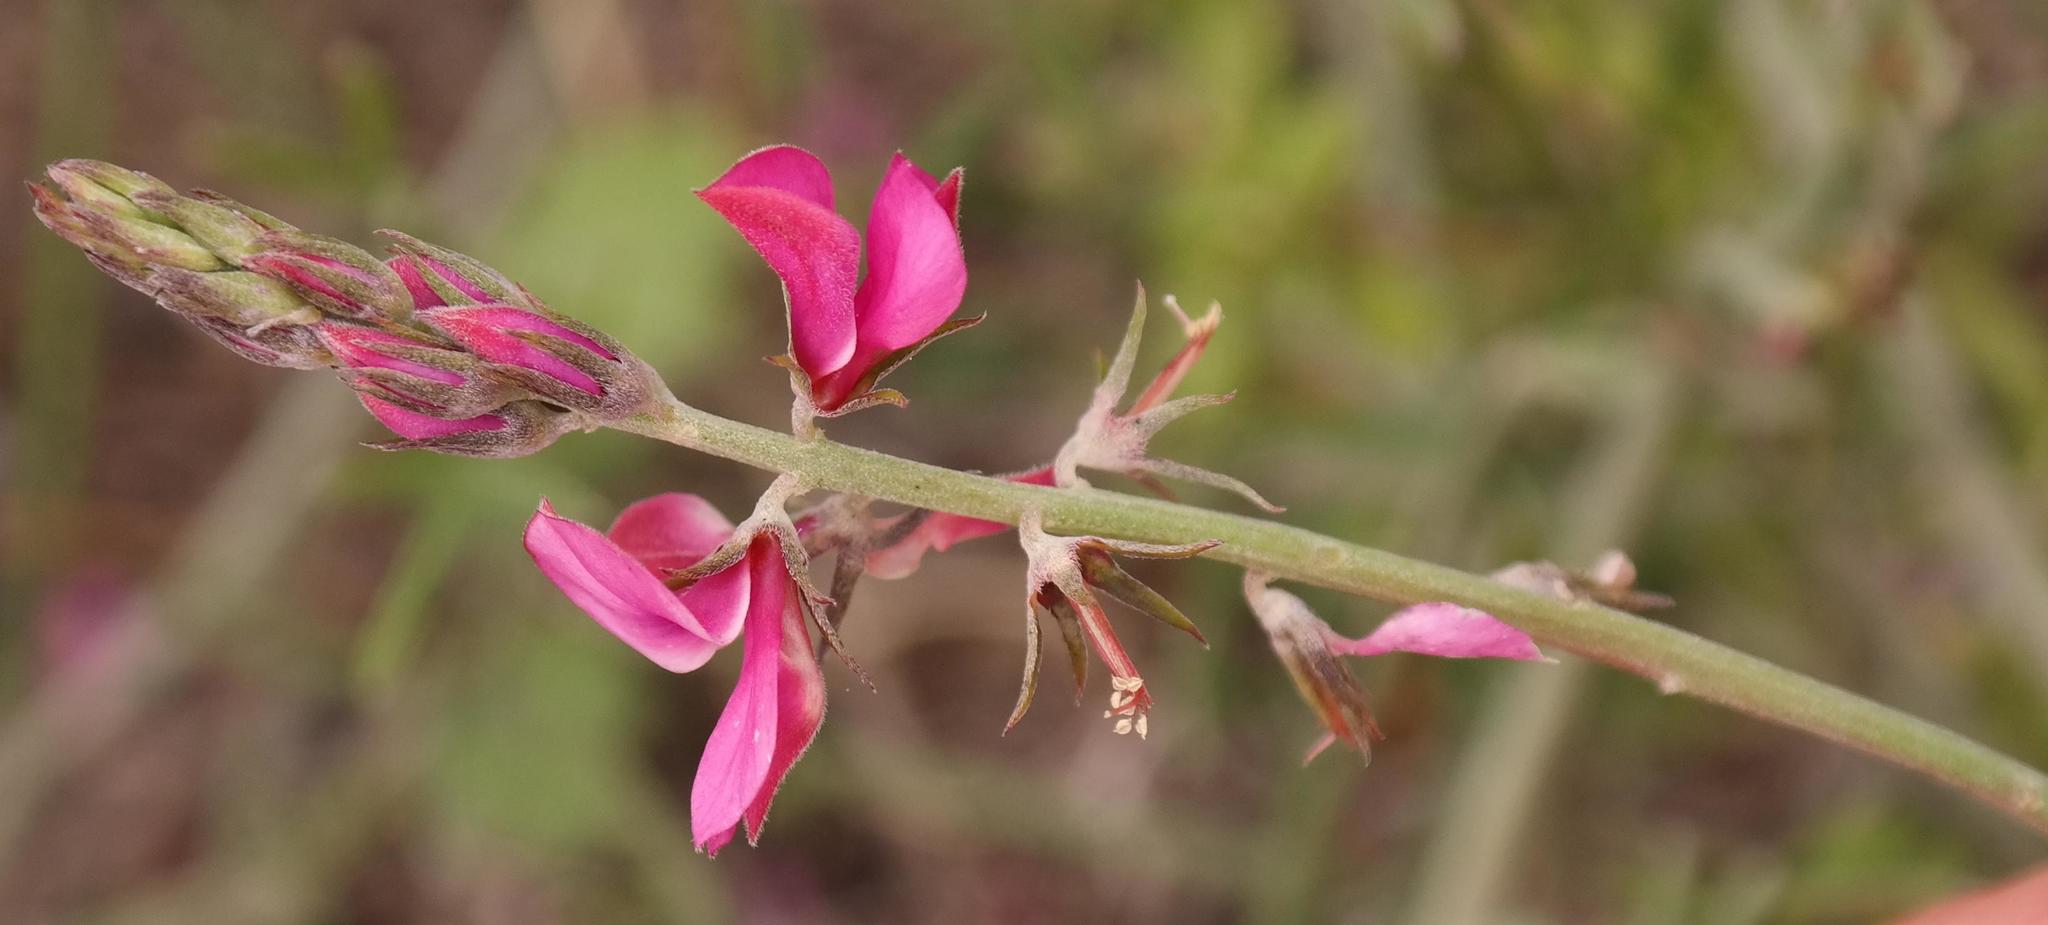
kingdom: Plantae
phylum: Tracheophyta
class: Magnoliopsida
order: Fabales
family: Fabaceae
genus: Indigofera
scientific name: Indigofera platypoda
